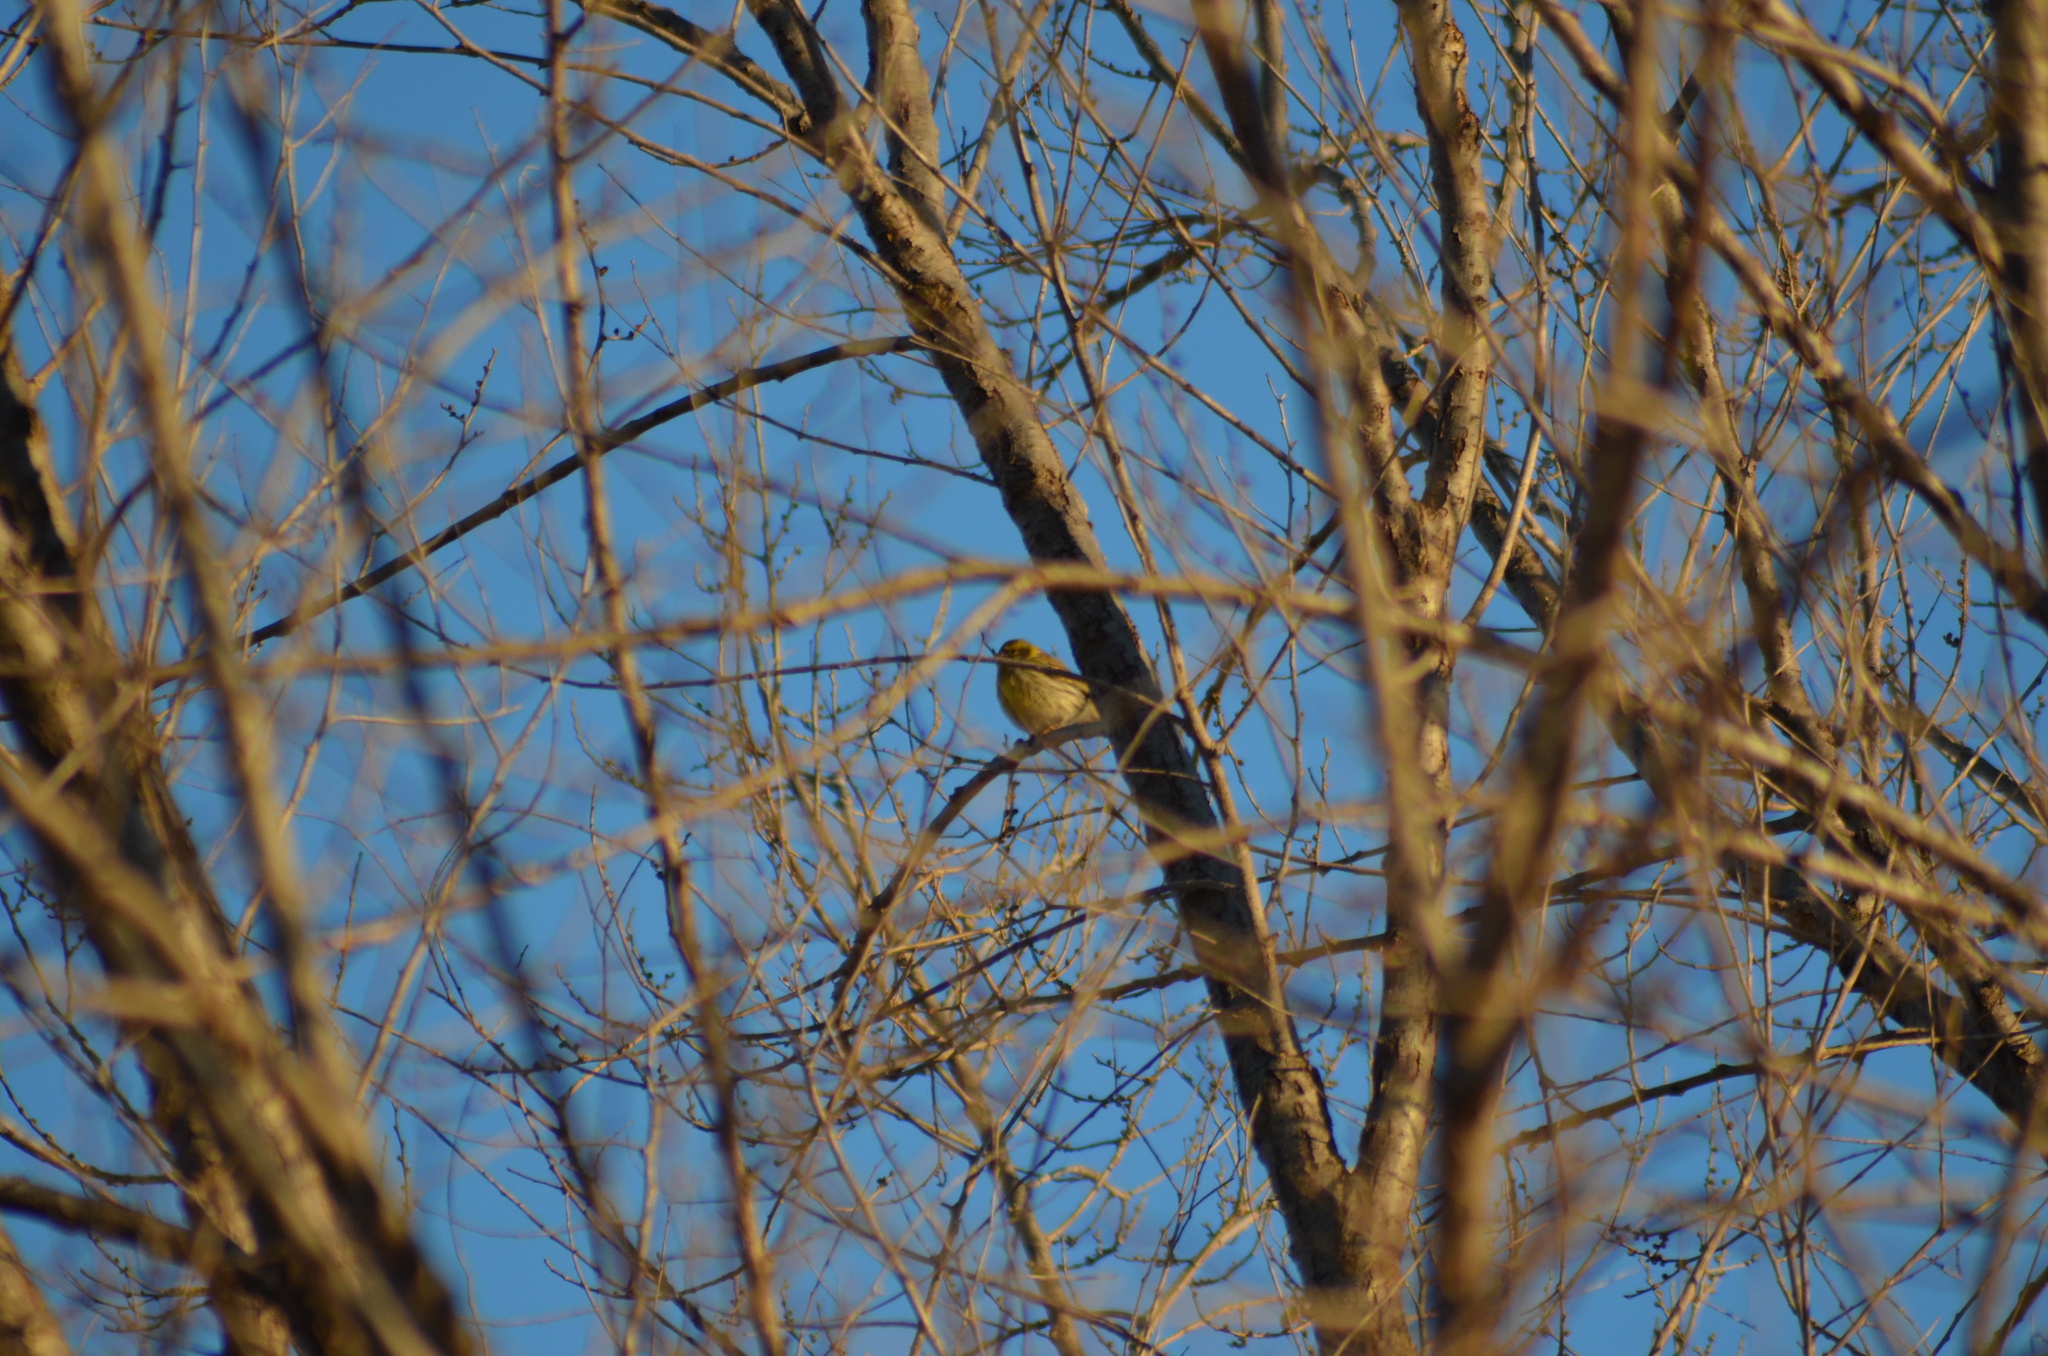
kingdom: Animalia
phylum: Chordata
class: Aves
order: Passeriformes
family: Fringillidae
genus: Serinus
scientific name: Serinus serinus
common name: European serin
